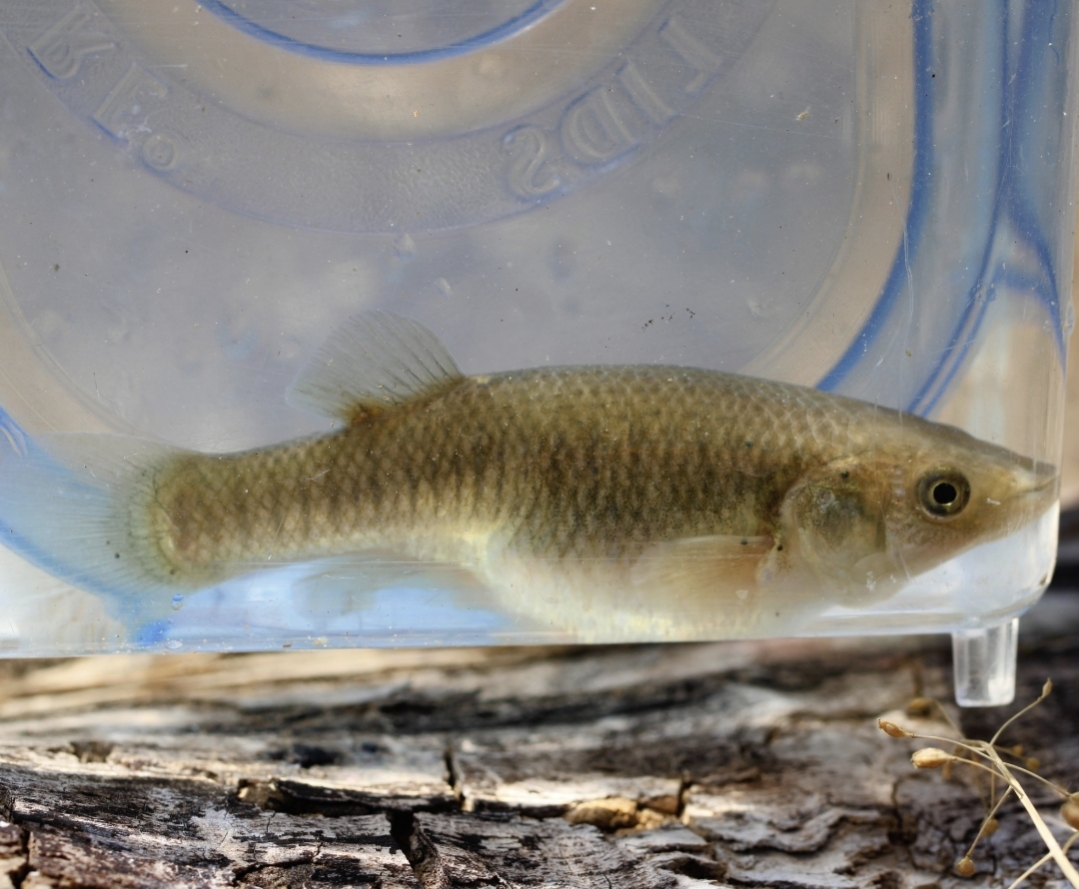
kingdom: Animalia
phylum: Chordata
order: Cyprinodontiformes
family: Fundulidae
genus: Fundulus
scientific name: Fundulus heteroclitus
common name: Mummichog
